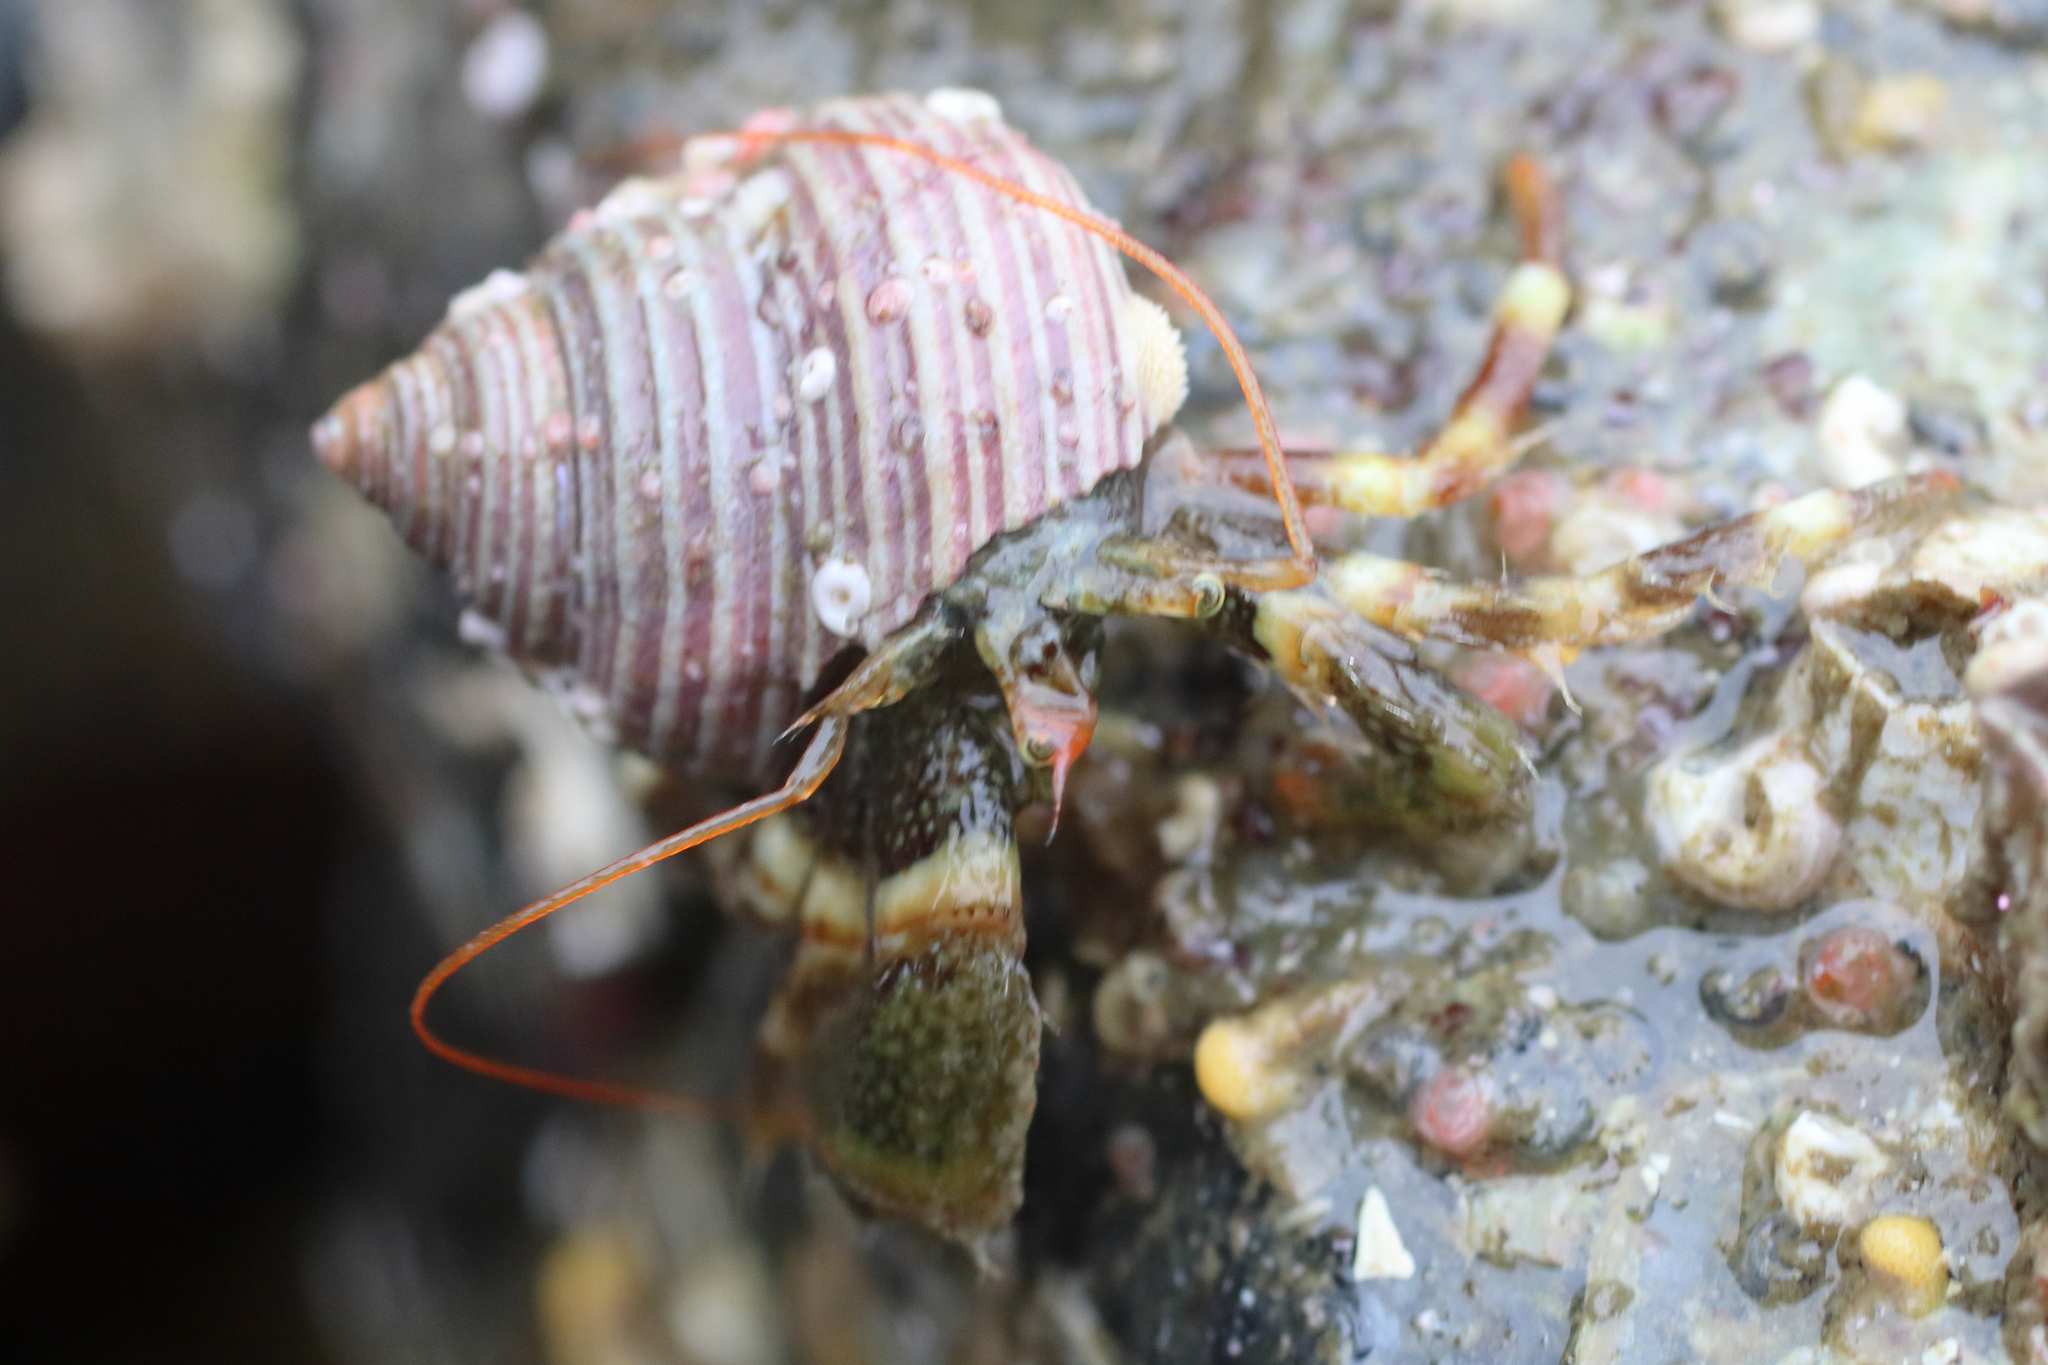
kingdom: Animalia
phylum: Arthropoda
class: Malacostraca
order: Decapoda
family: Paguridae
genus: Pagurus
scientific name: Pagurus caurinus
